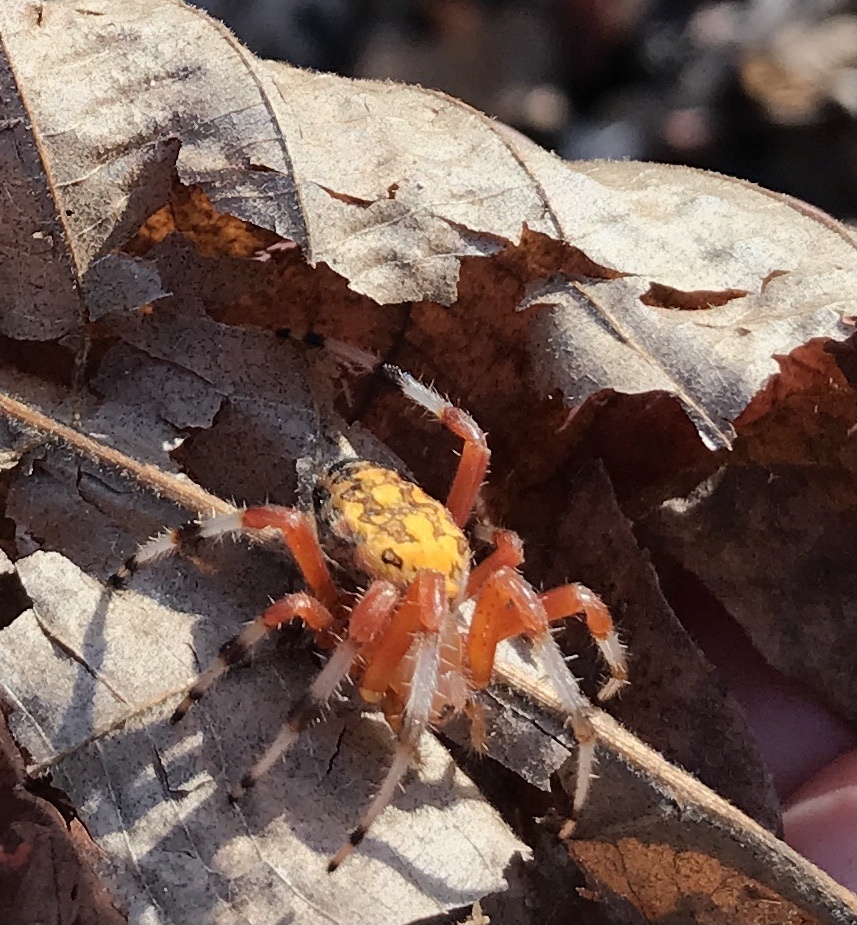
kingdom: Animalia
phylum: Arthropoda
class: Arachnida
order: Araneae
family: Araneidae
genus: Araneus
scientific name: Araneus marmoreus
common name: Marbled orbweaver
